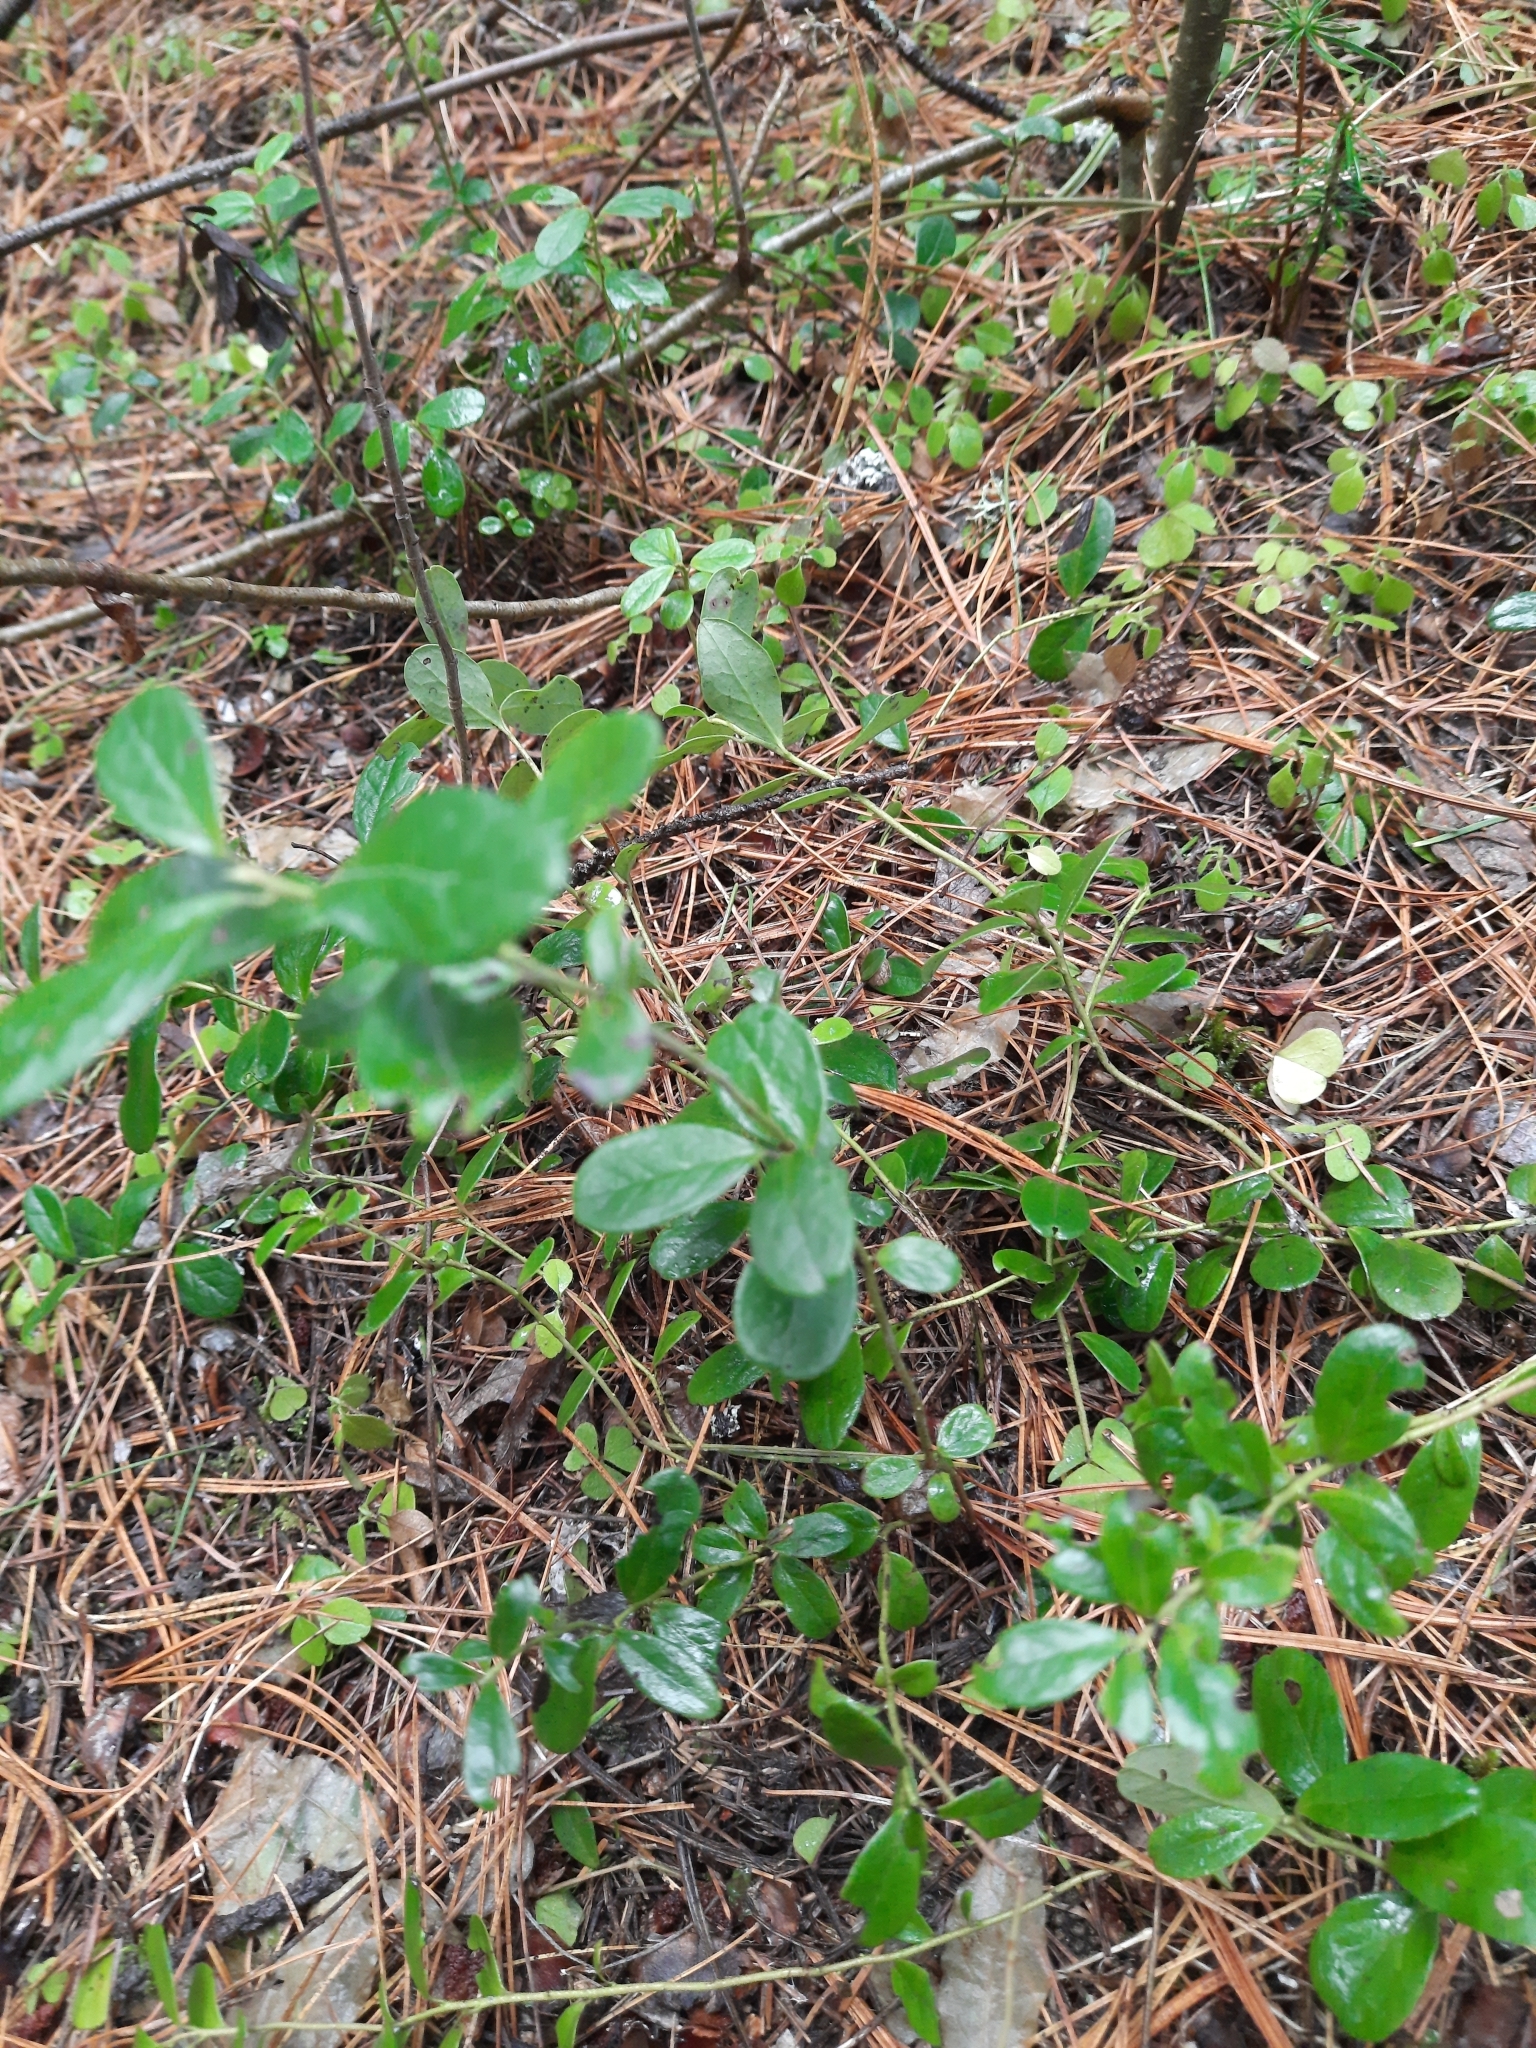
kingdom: Plantae
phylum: Tracheophyta
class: Magnoliopsida
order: Ericales
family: Ericaceae
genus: Vaccinium
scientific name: Vaccinium vitis-idaea
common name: Cowberry
